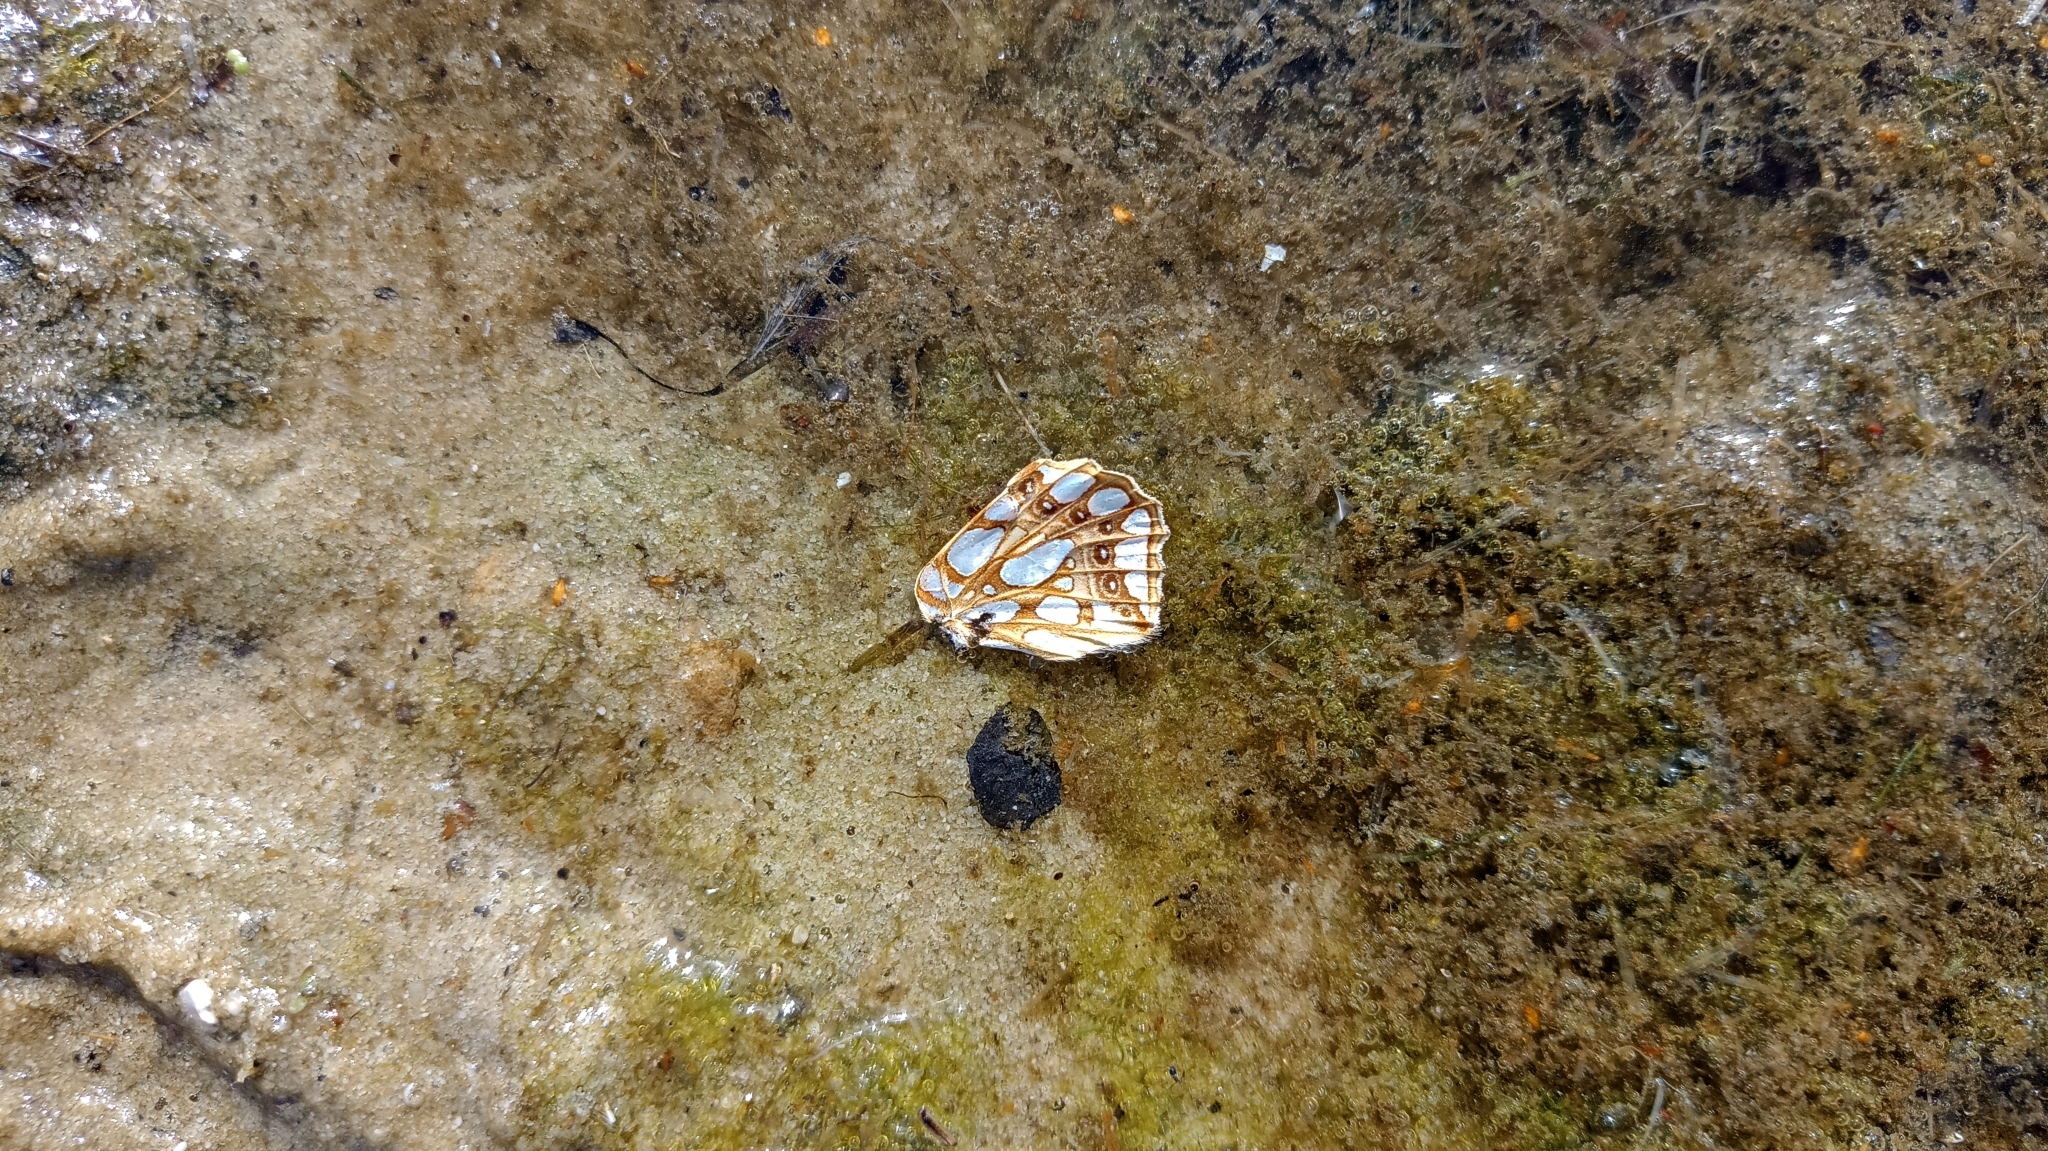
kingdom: Animalia
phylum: Arthropoda
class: Insecta
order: Lepidoptera
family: Nymphalidae
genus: Issoria
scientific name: Issoria lathonia
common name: Queen of spain fritillary
